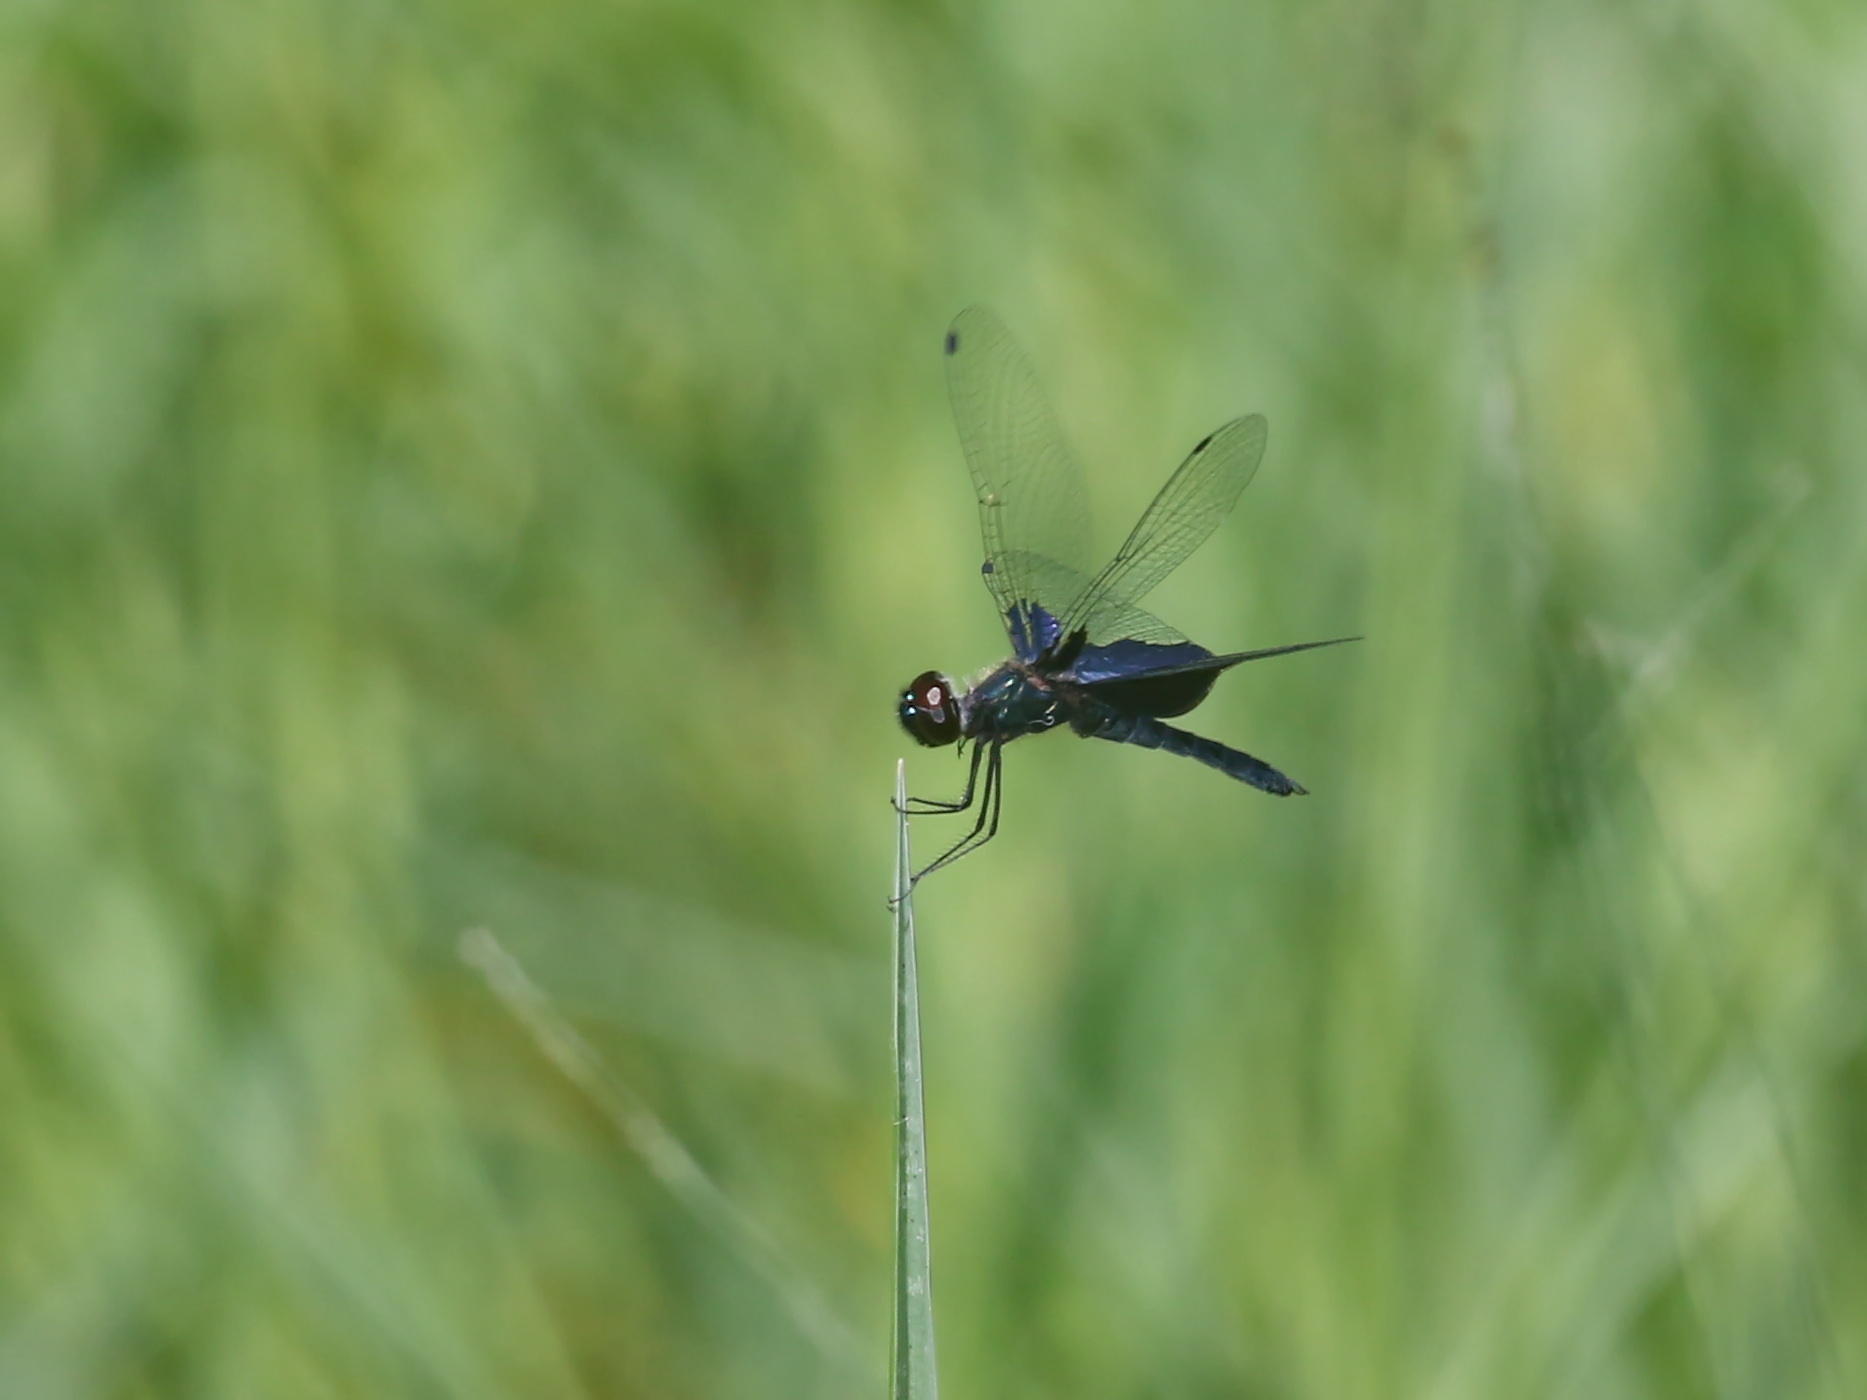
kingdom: Animalia
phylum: Arthropoda
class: Insecta
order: Odonata
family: Libellulidae
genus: Rhyothemis
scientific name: Rhyothemis triangularis
